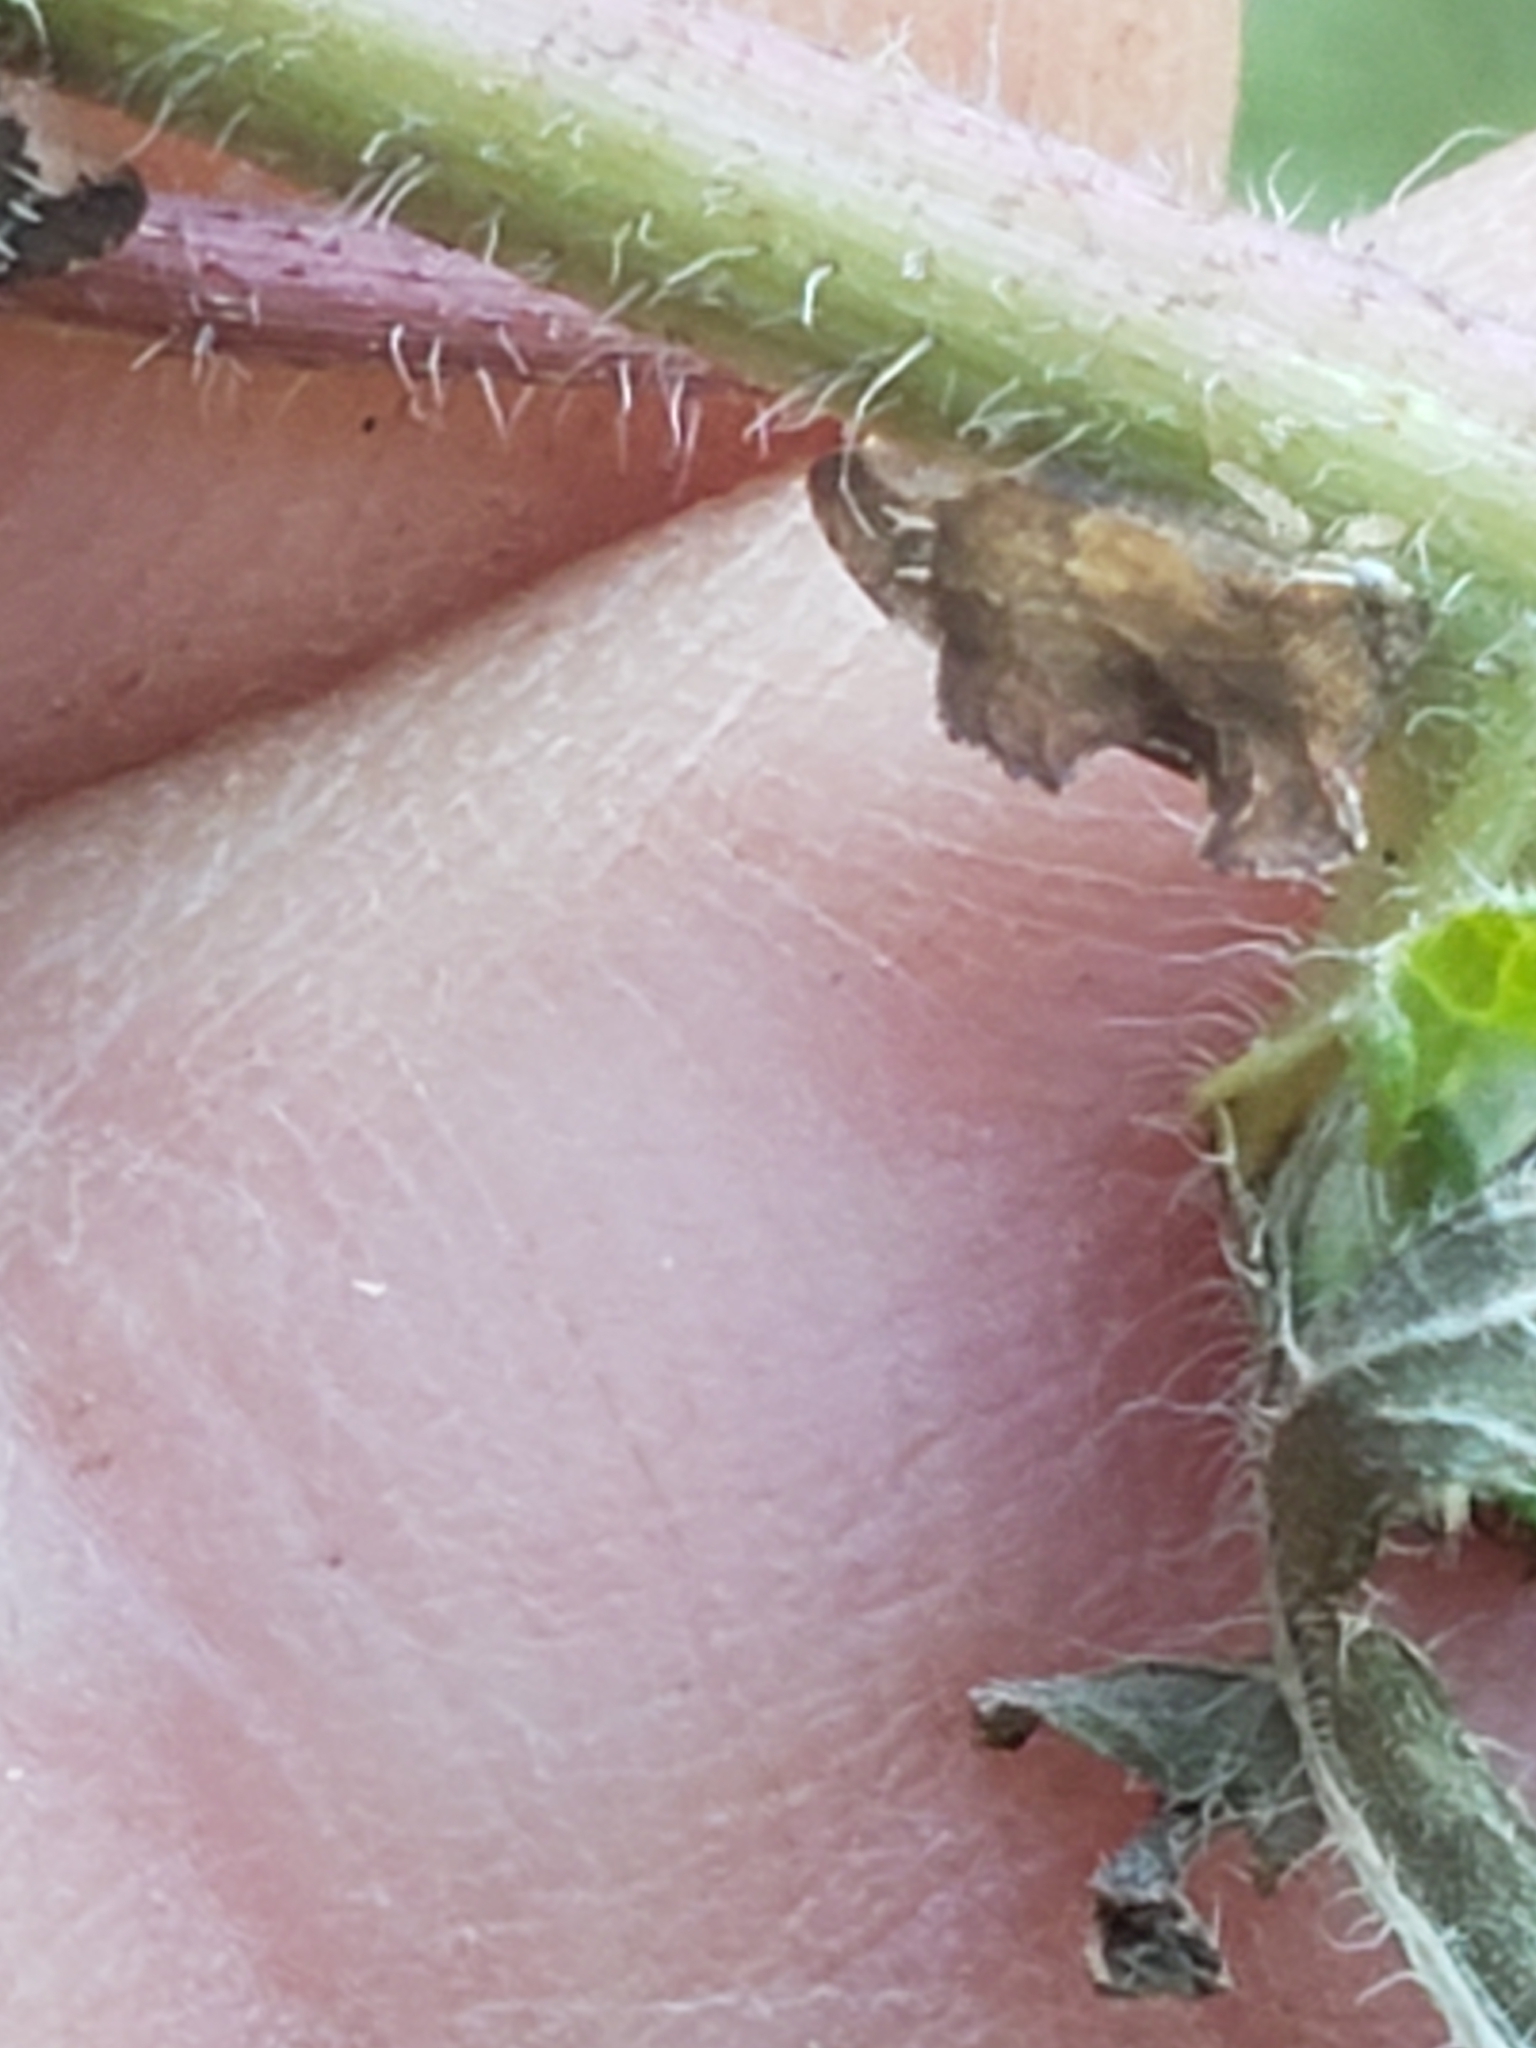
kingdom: Animalia
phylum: Arthropoda
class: Insecta
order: Hemiptera
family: Membracidae
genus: Entylia
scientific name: Entylia carinata
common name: Keeled treehopper
